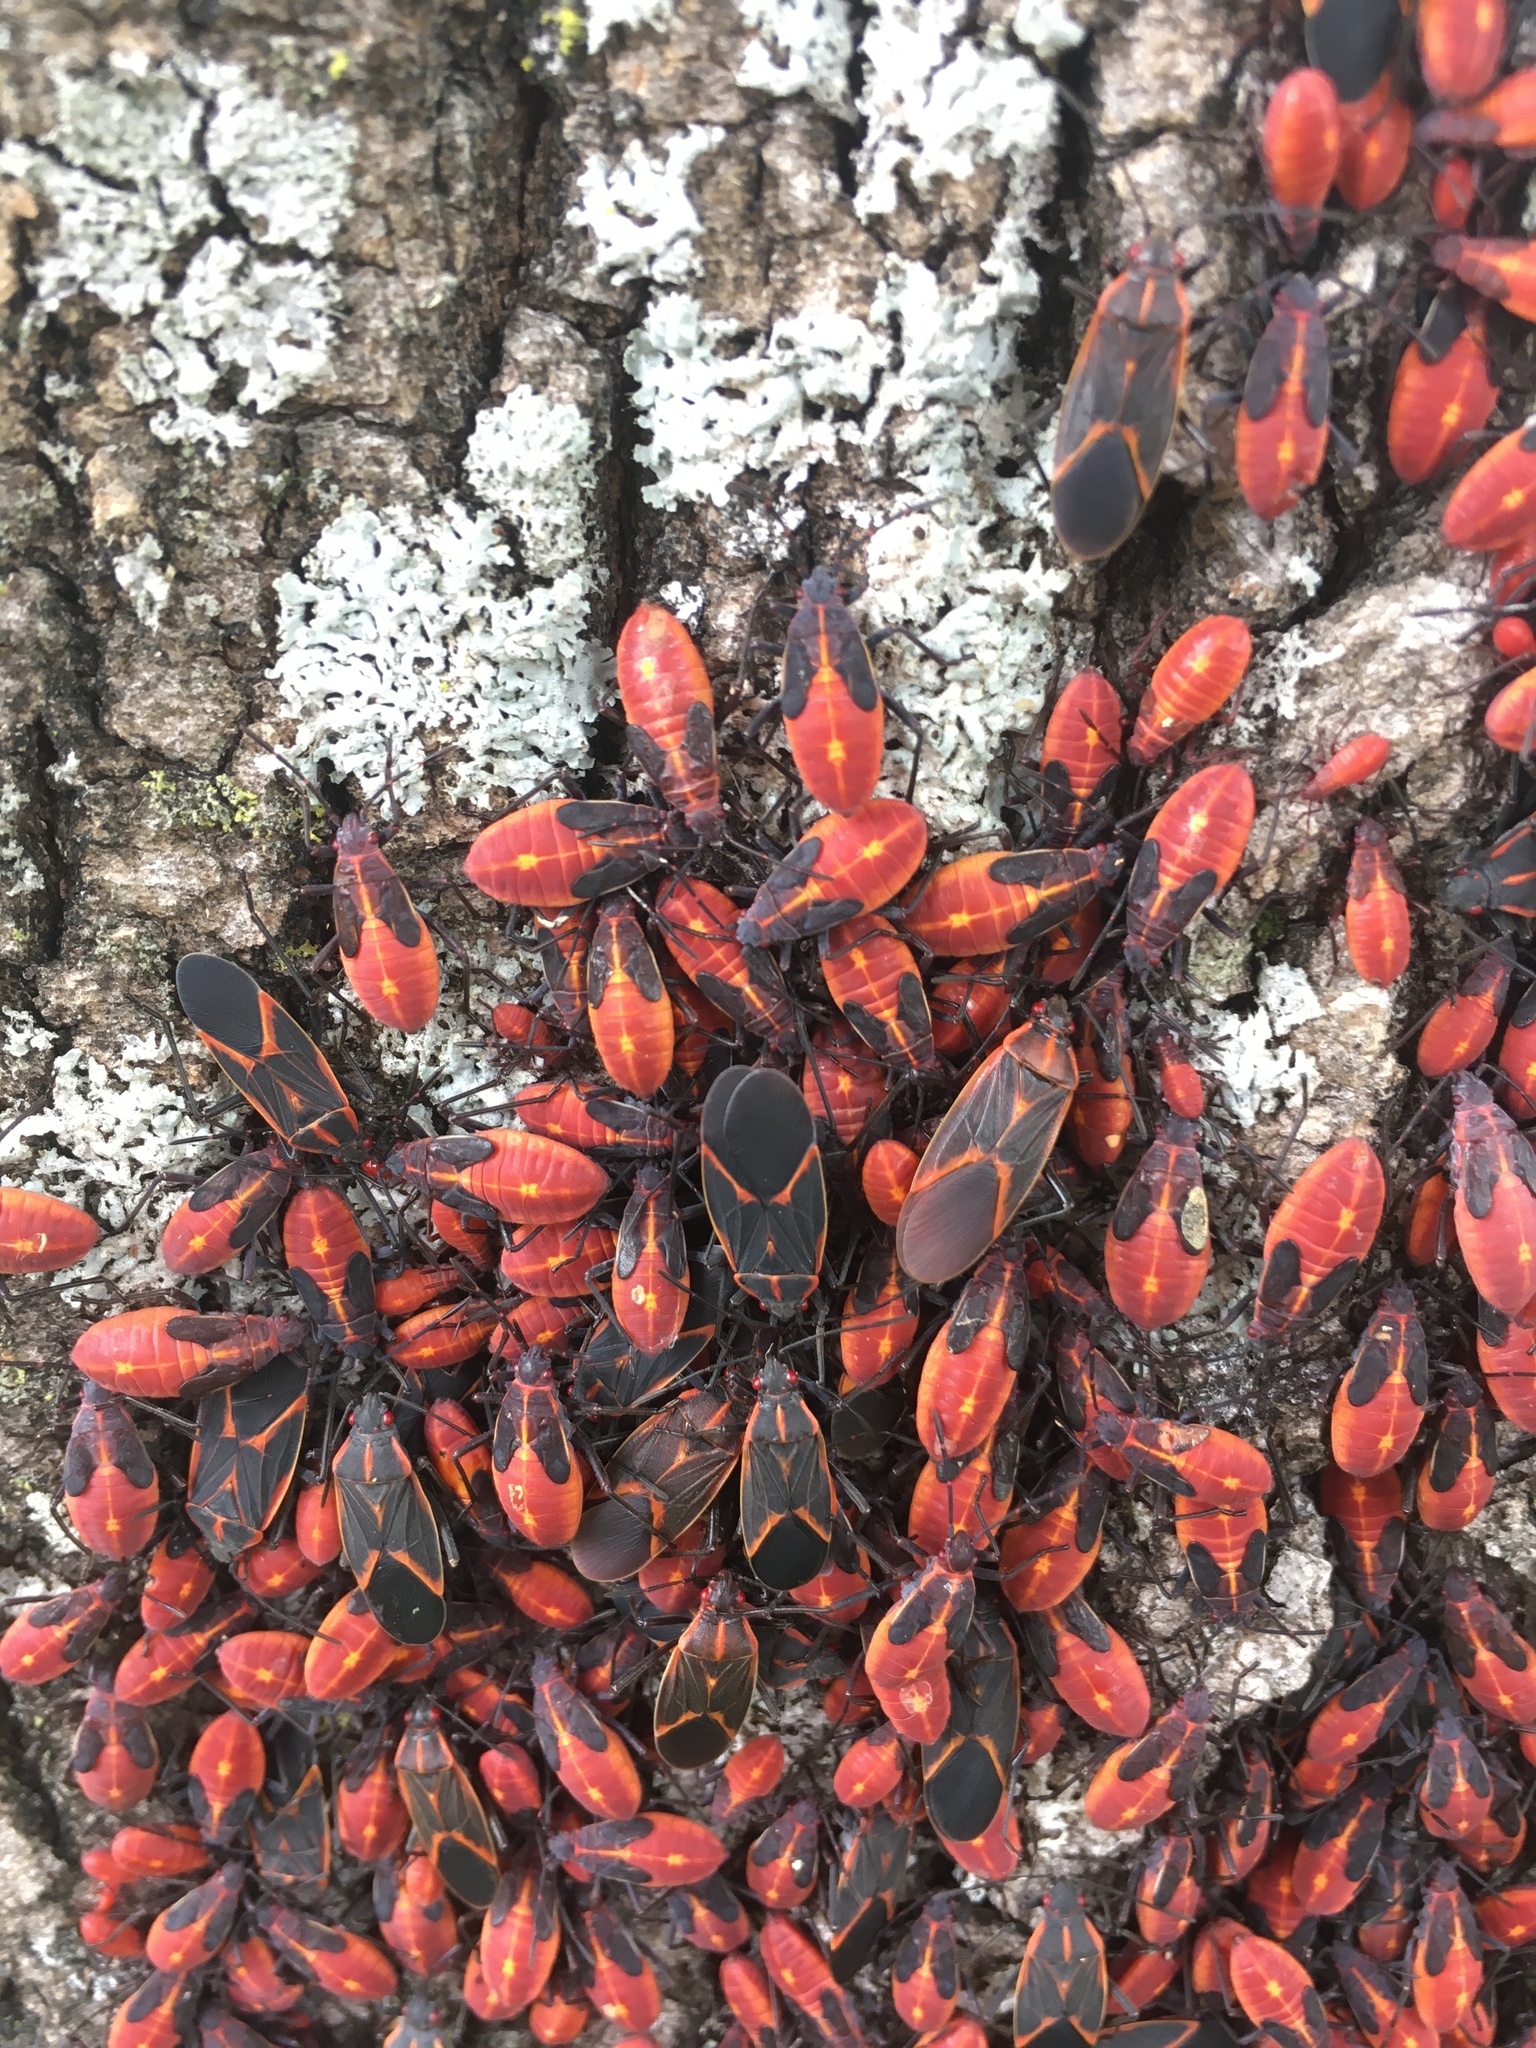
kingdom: Animalia
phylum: Arthropoda
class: Insecta
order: Hemiptera
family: Rhopalidae
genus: Boisea
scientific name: Boisea trivittata
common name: Boxelder bug
